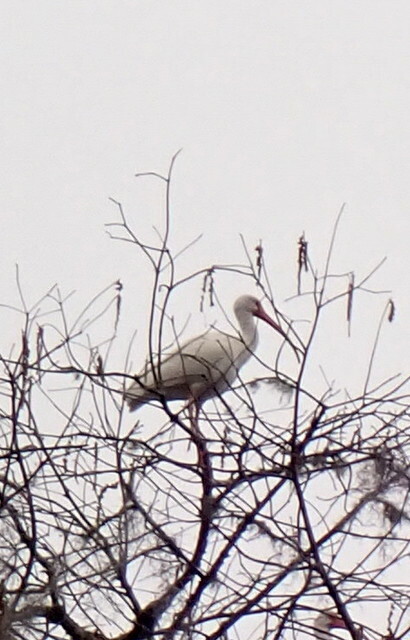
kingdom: Animalia
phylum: Chordata
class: Aves
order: Pelecaniformes
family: Threskiornithidae
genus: Eudocimus
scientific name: Eudocimus albus
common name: White ibis
